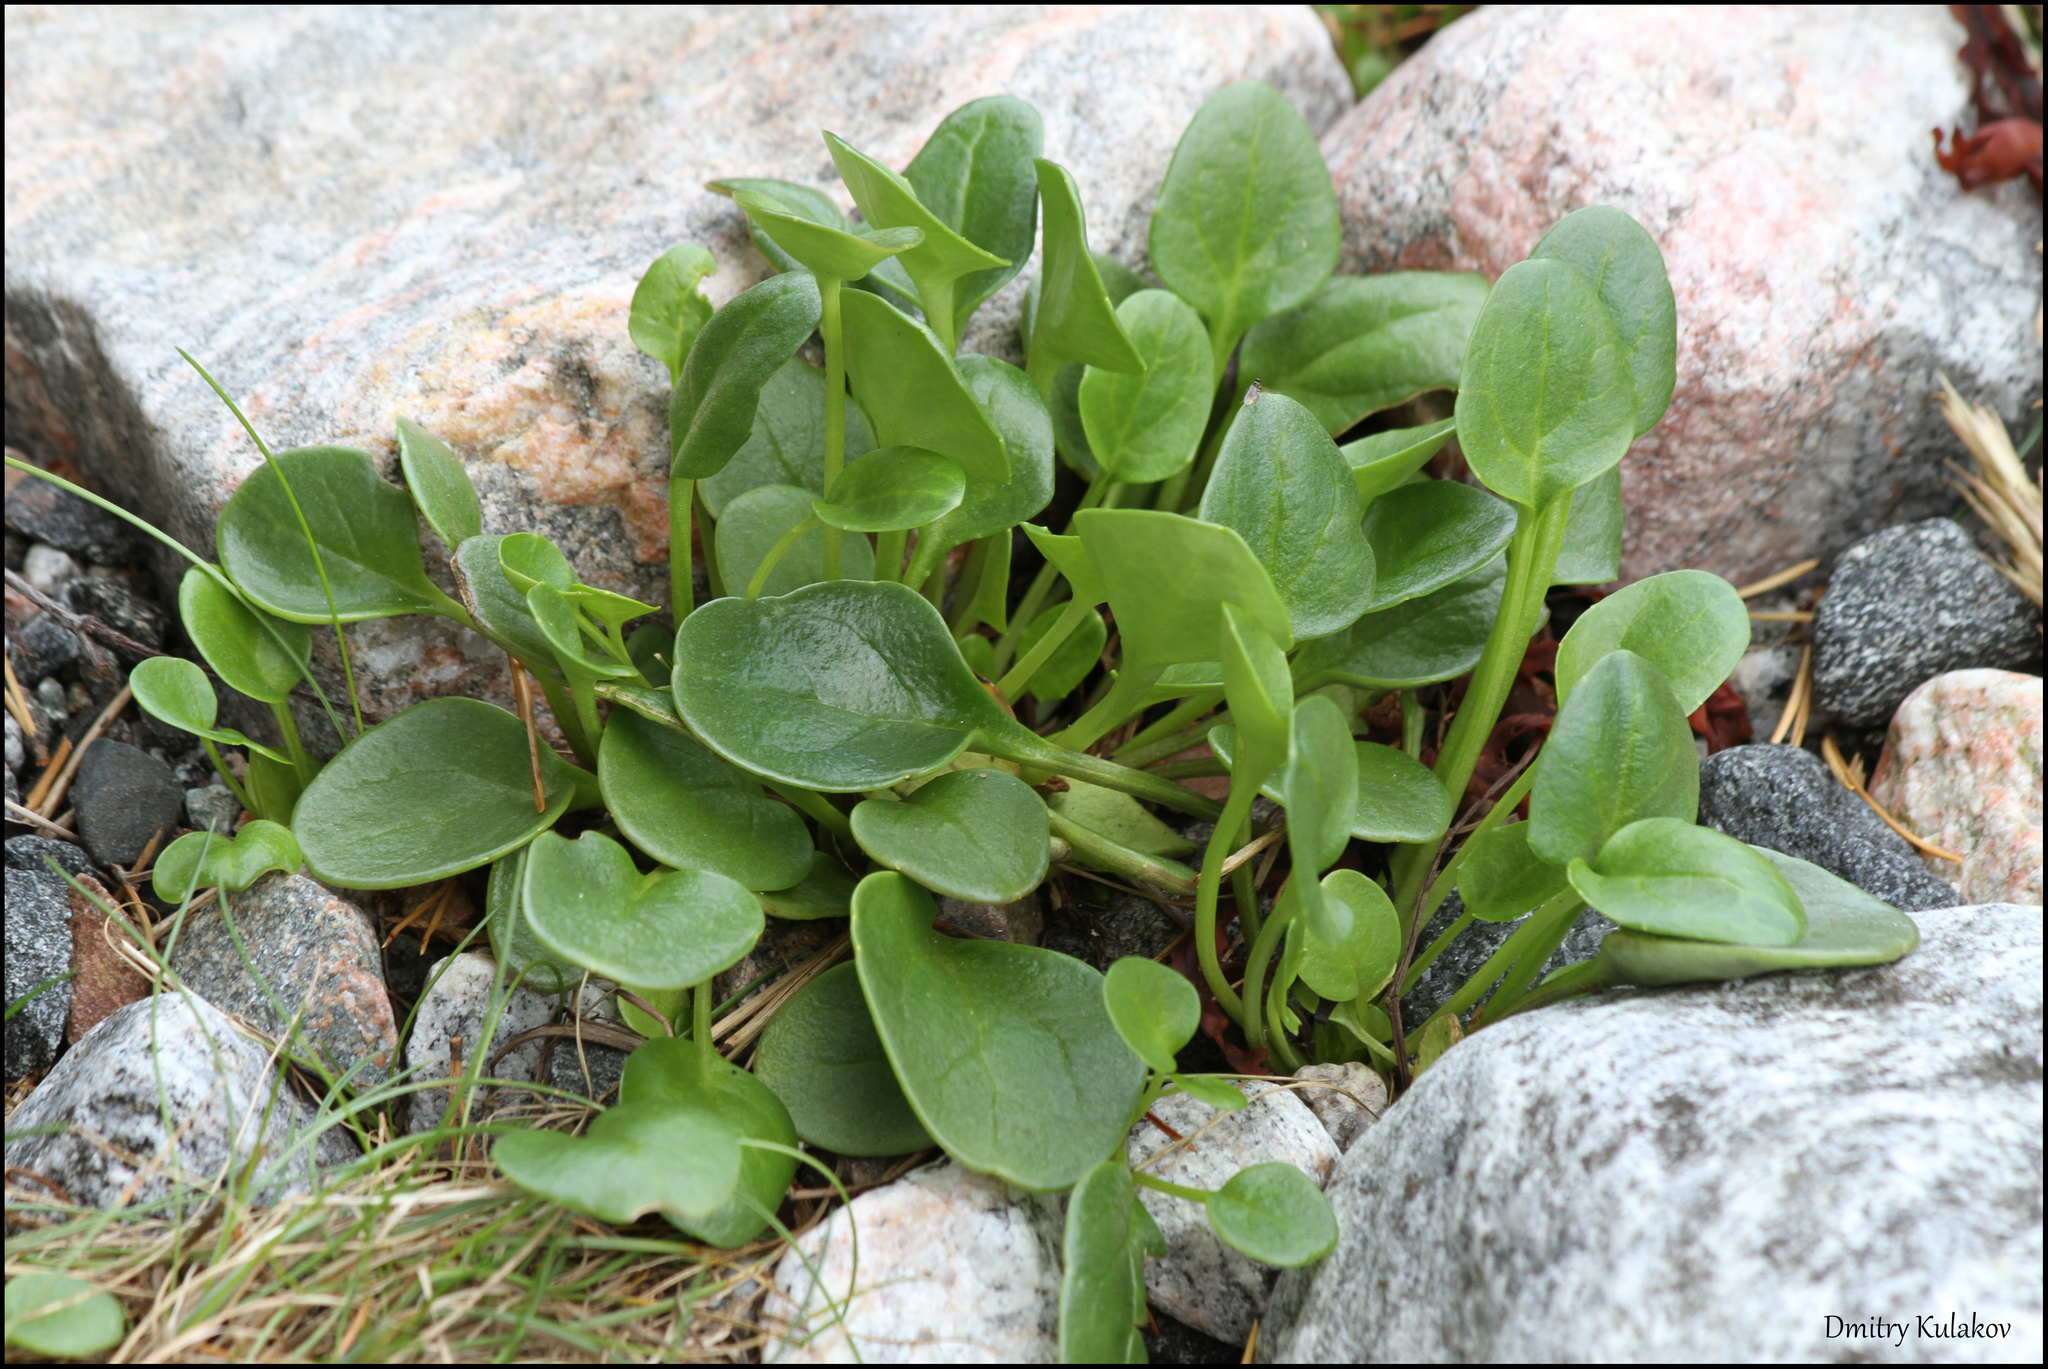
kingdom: Plantae
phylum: Tracheophyta
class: Magnoliopsida
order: Brassicales
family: Brassicaceae
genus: Cochlearia
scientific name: Cochlearia groenlandica
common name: Danish scurvygrass
